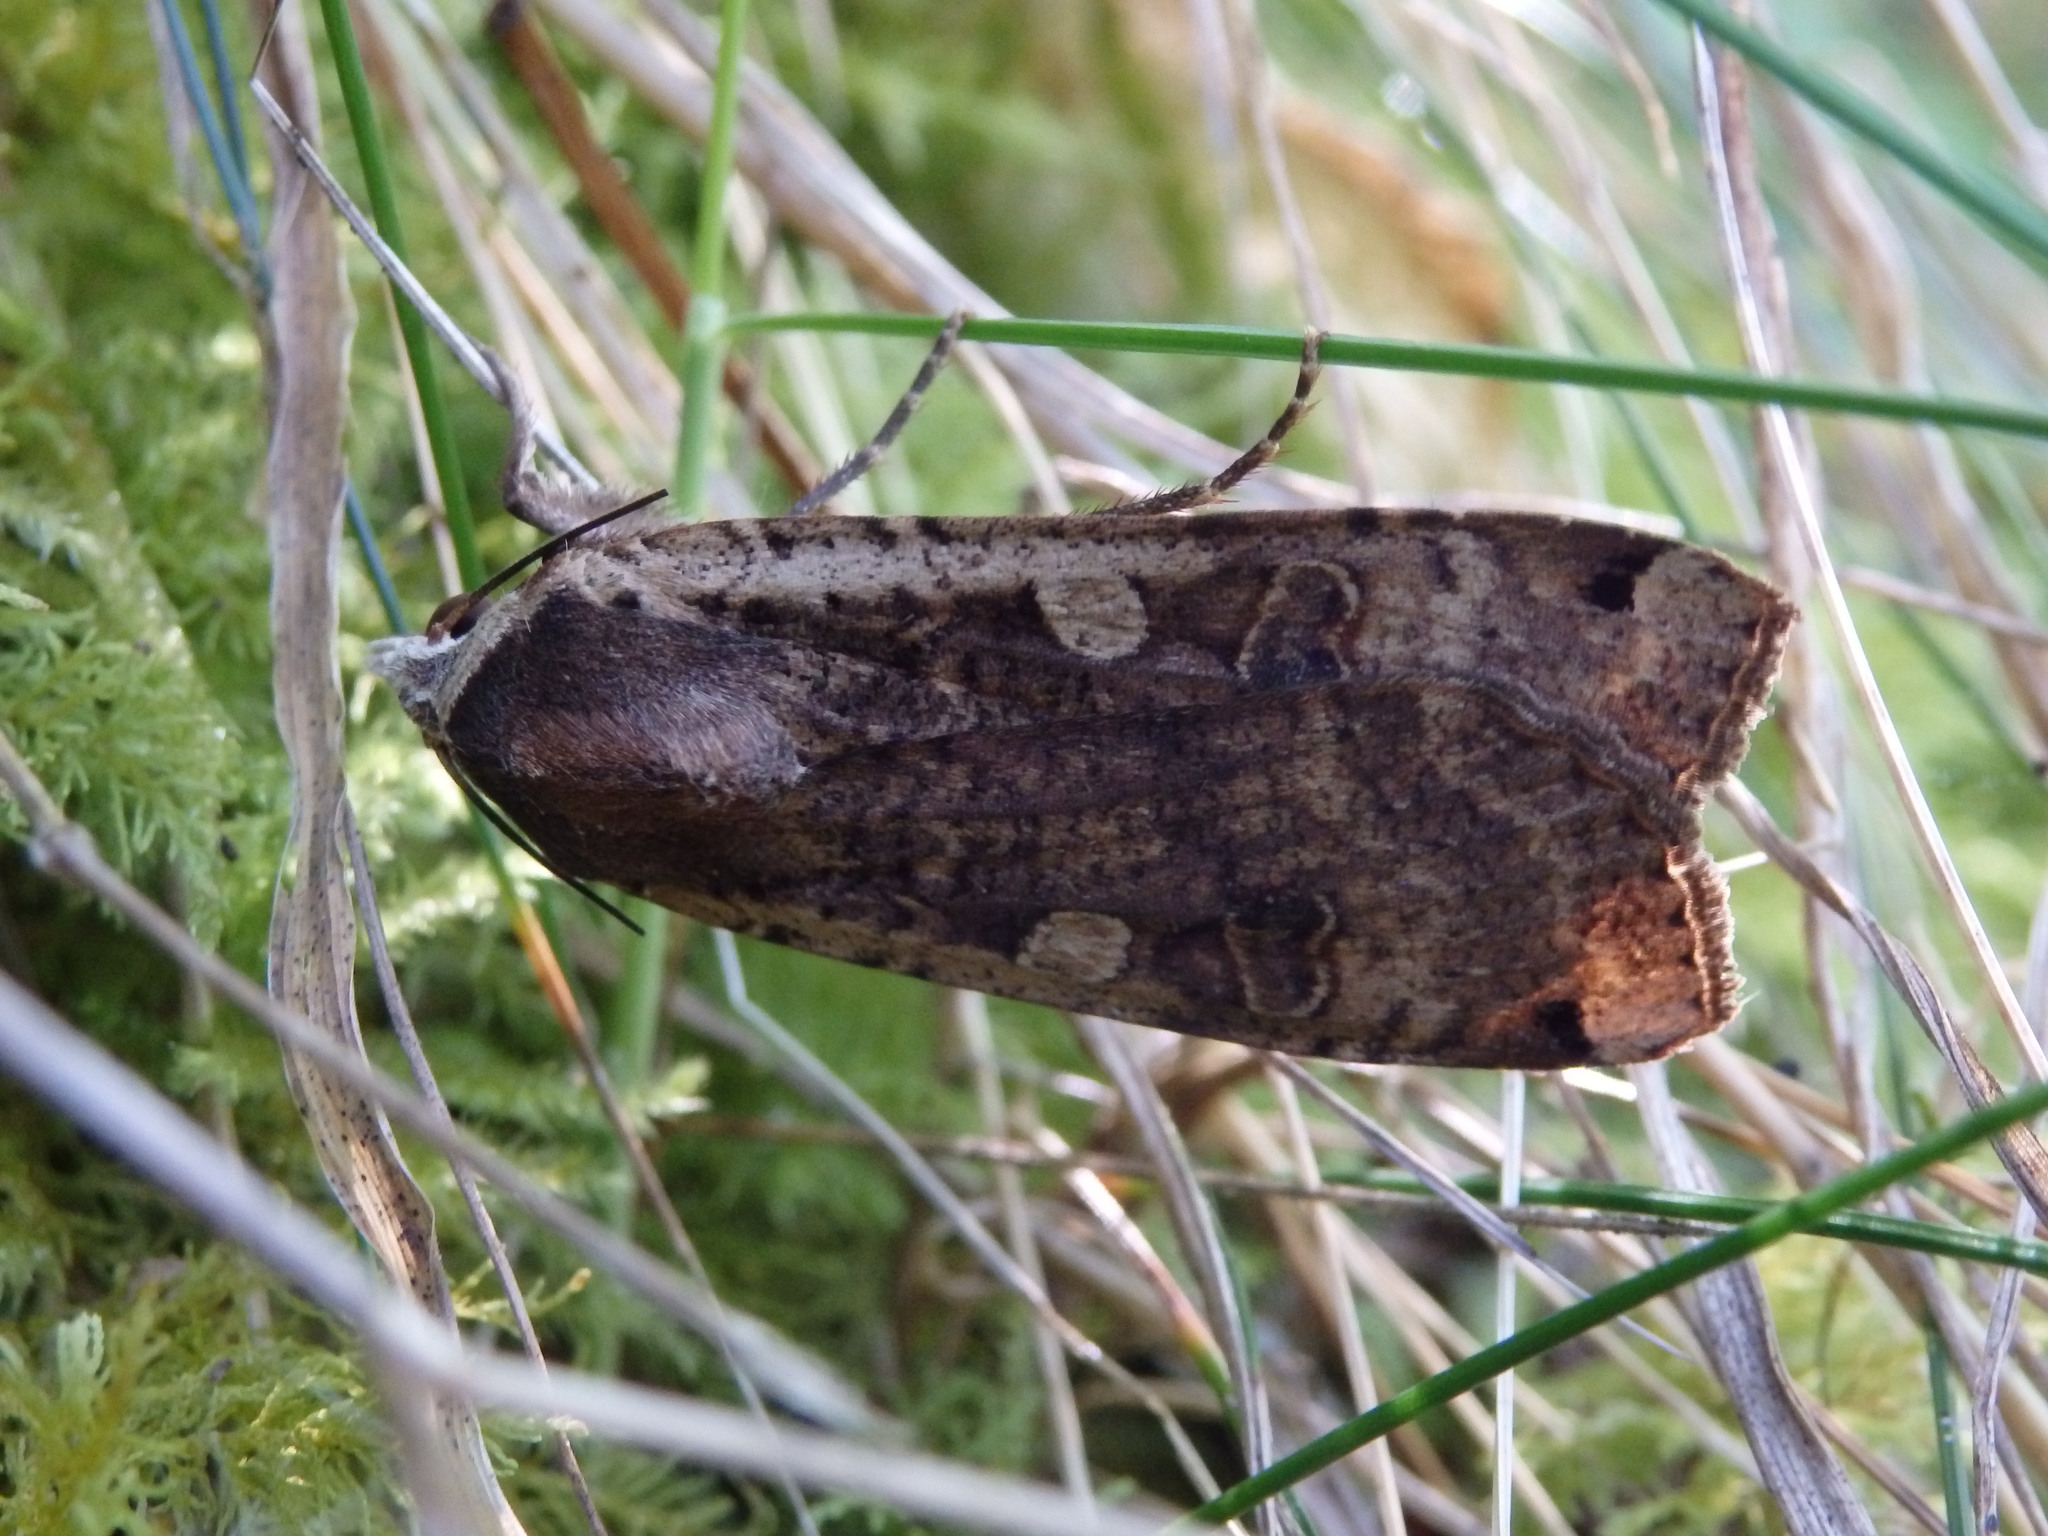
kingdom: Animalia
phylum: Arthropoda
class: Insecta
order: Lepidoptera
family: Noctuidae
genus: Noctua
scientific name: Noctua pronuba
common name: Large yellow underwing
